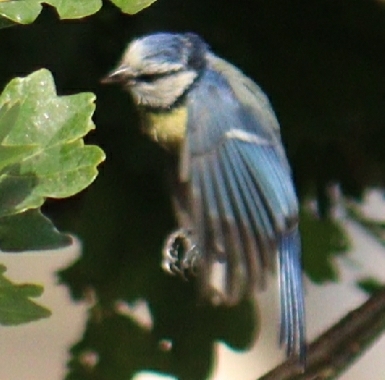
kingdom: Animalia
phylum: Chordata
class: Aves
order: Passeriformes
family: Paridae
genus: Cyanistes
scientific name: Cyanistes caeruleus
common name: Eurasian blue tit
